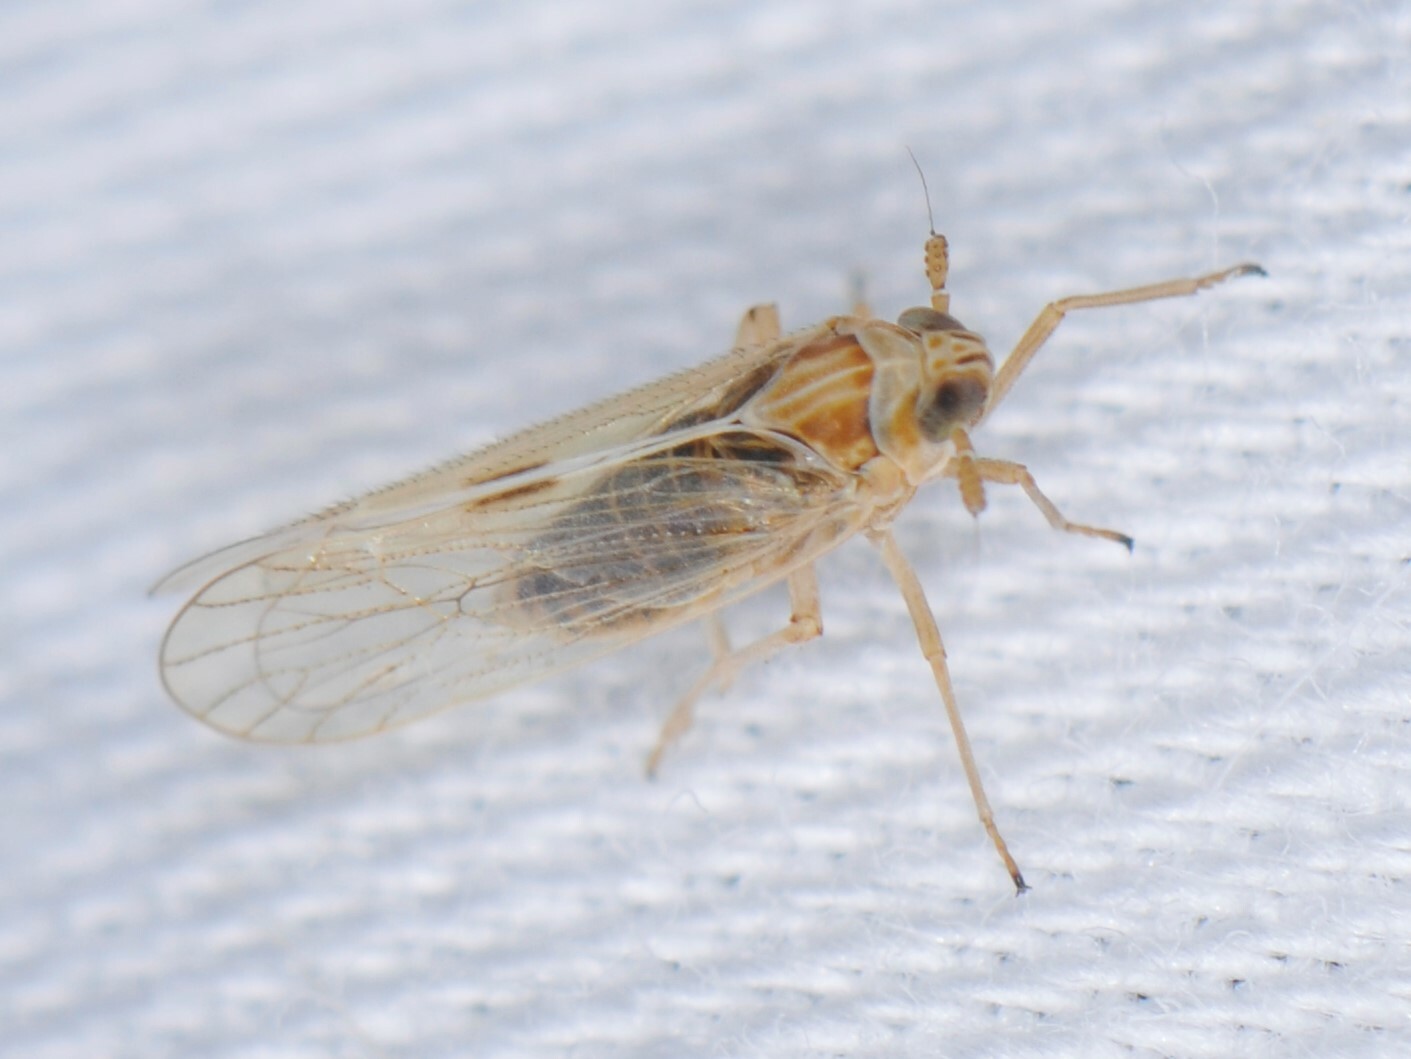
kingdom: Animalia
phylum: Arthropoda
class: Insecta
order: Hemiptera
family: Delphacidae
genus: Chionomus
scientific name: Chionomus
